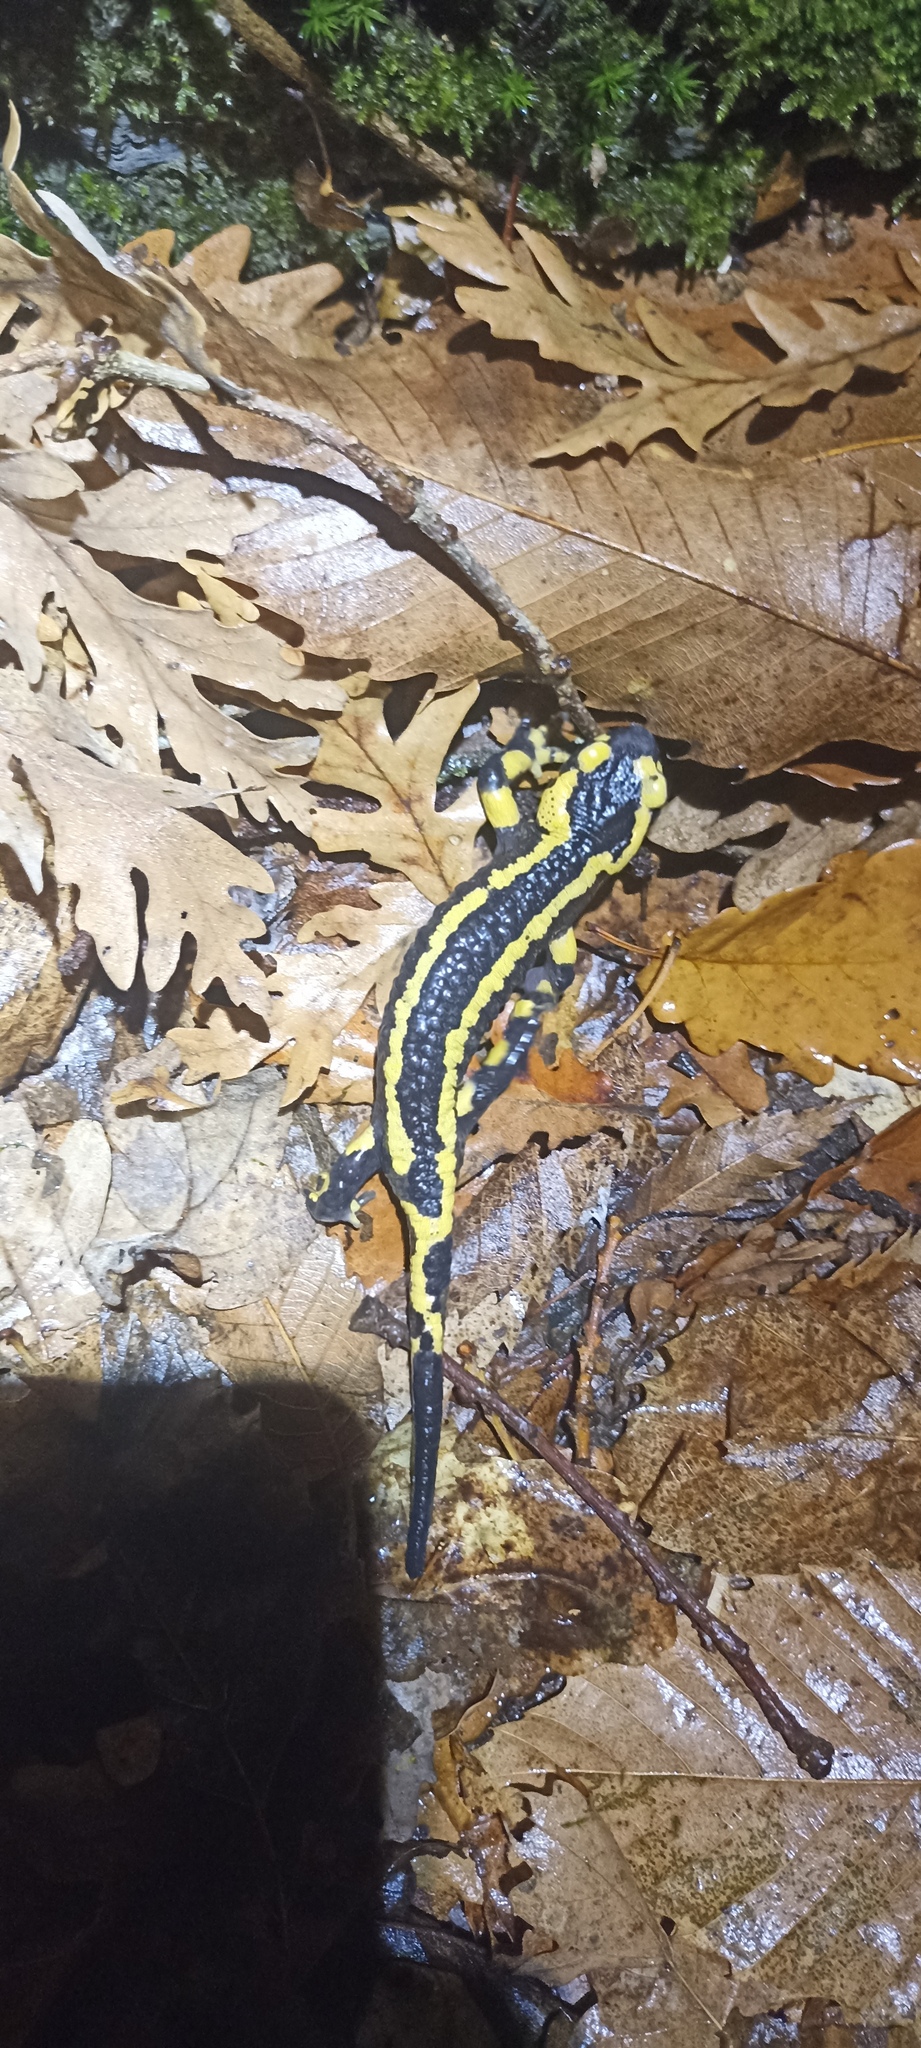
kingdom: Animalia
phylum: Chordata
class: Amphibia
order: Caudata
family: Salamandridae
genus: Salamandra
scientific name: Salamandra salamandra
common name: Fire salamander
